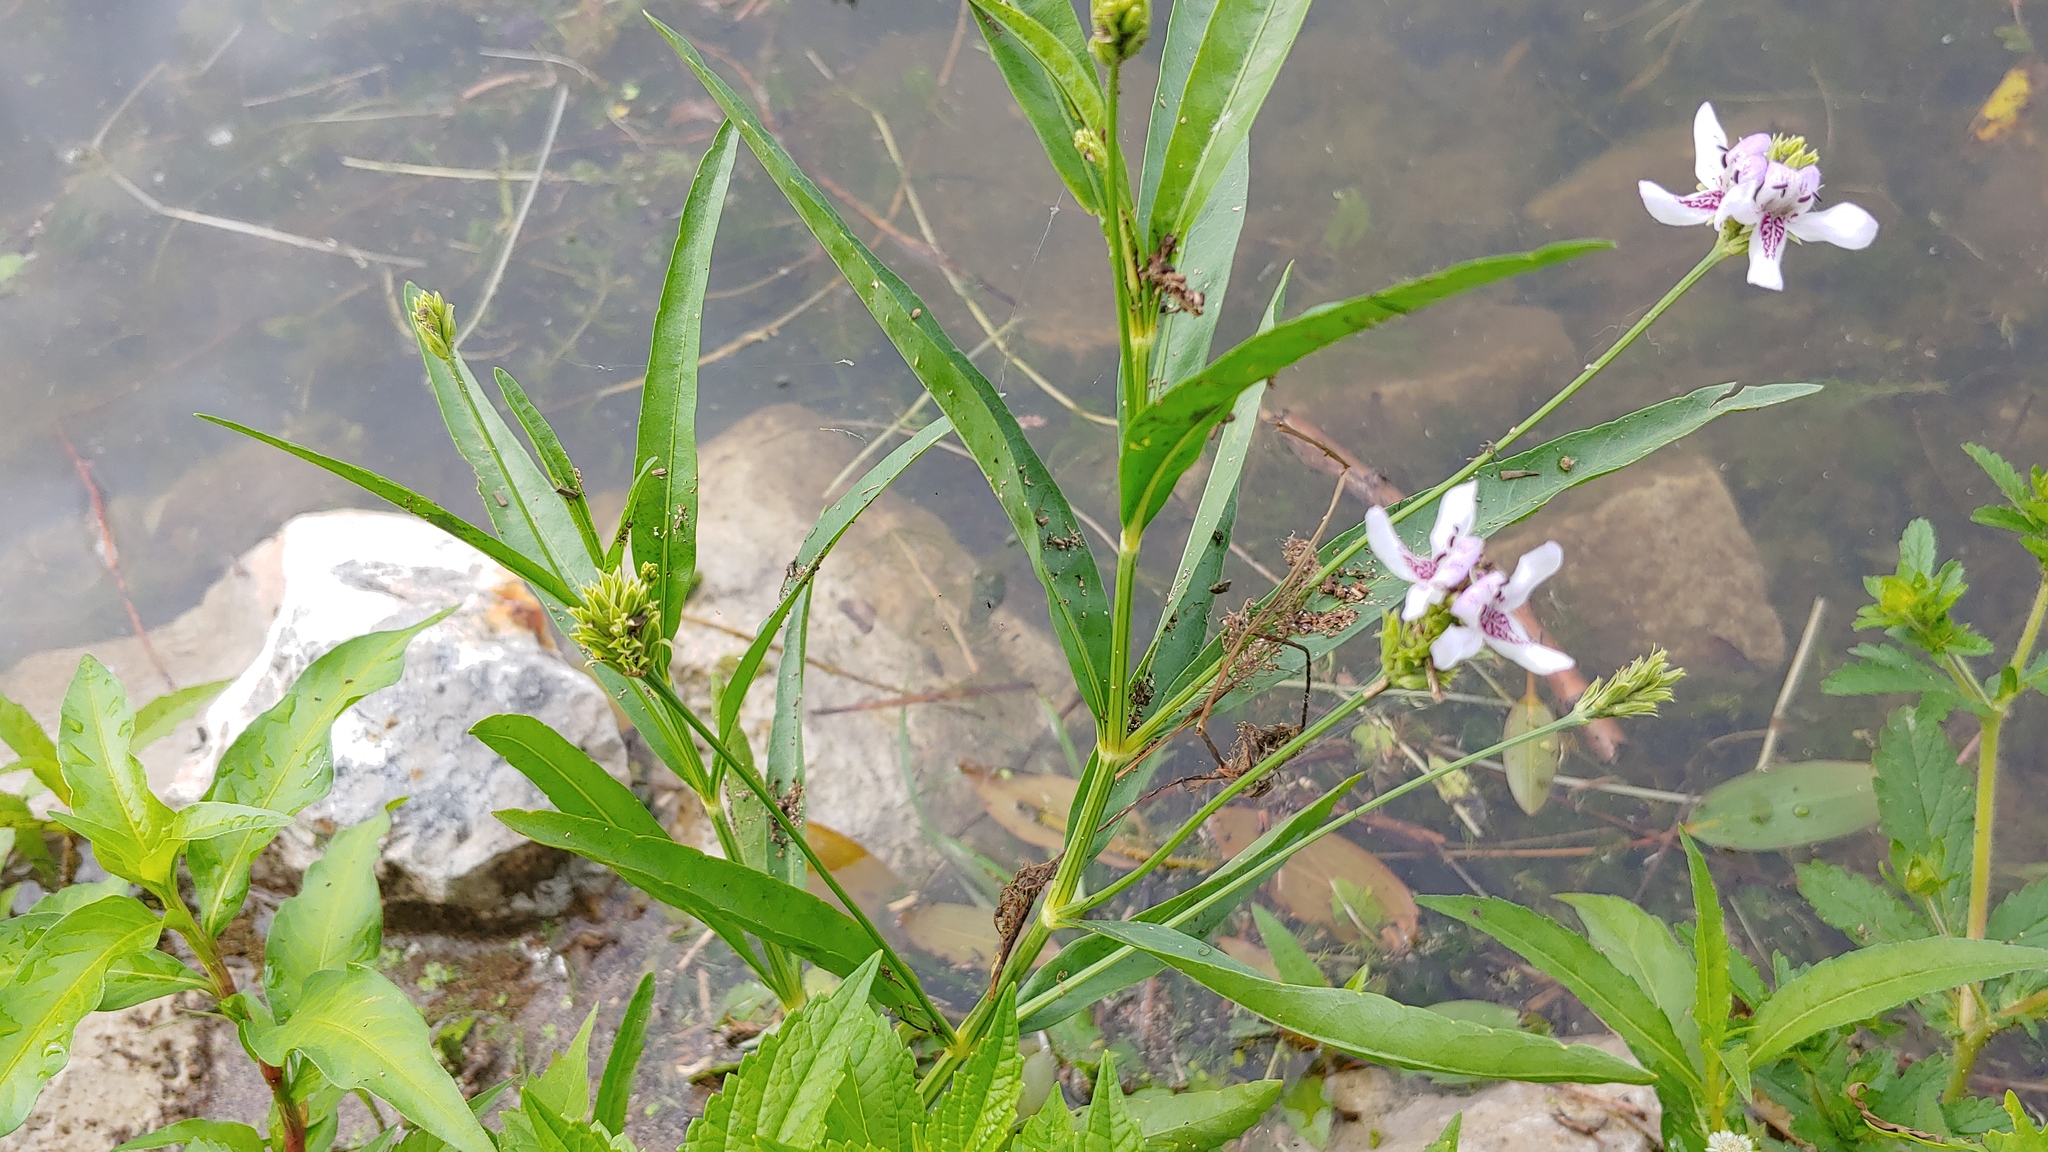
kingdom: Plantae
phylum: Tracheophyta
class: Magnoliopsida
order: Lamiales
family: Acanthaceae
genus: Dianthera
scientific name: Dianthera americana
